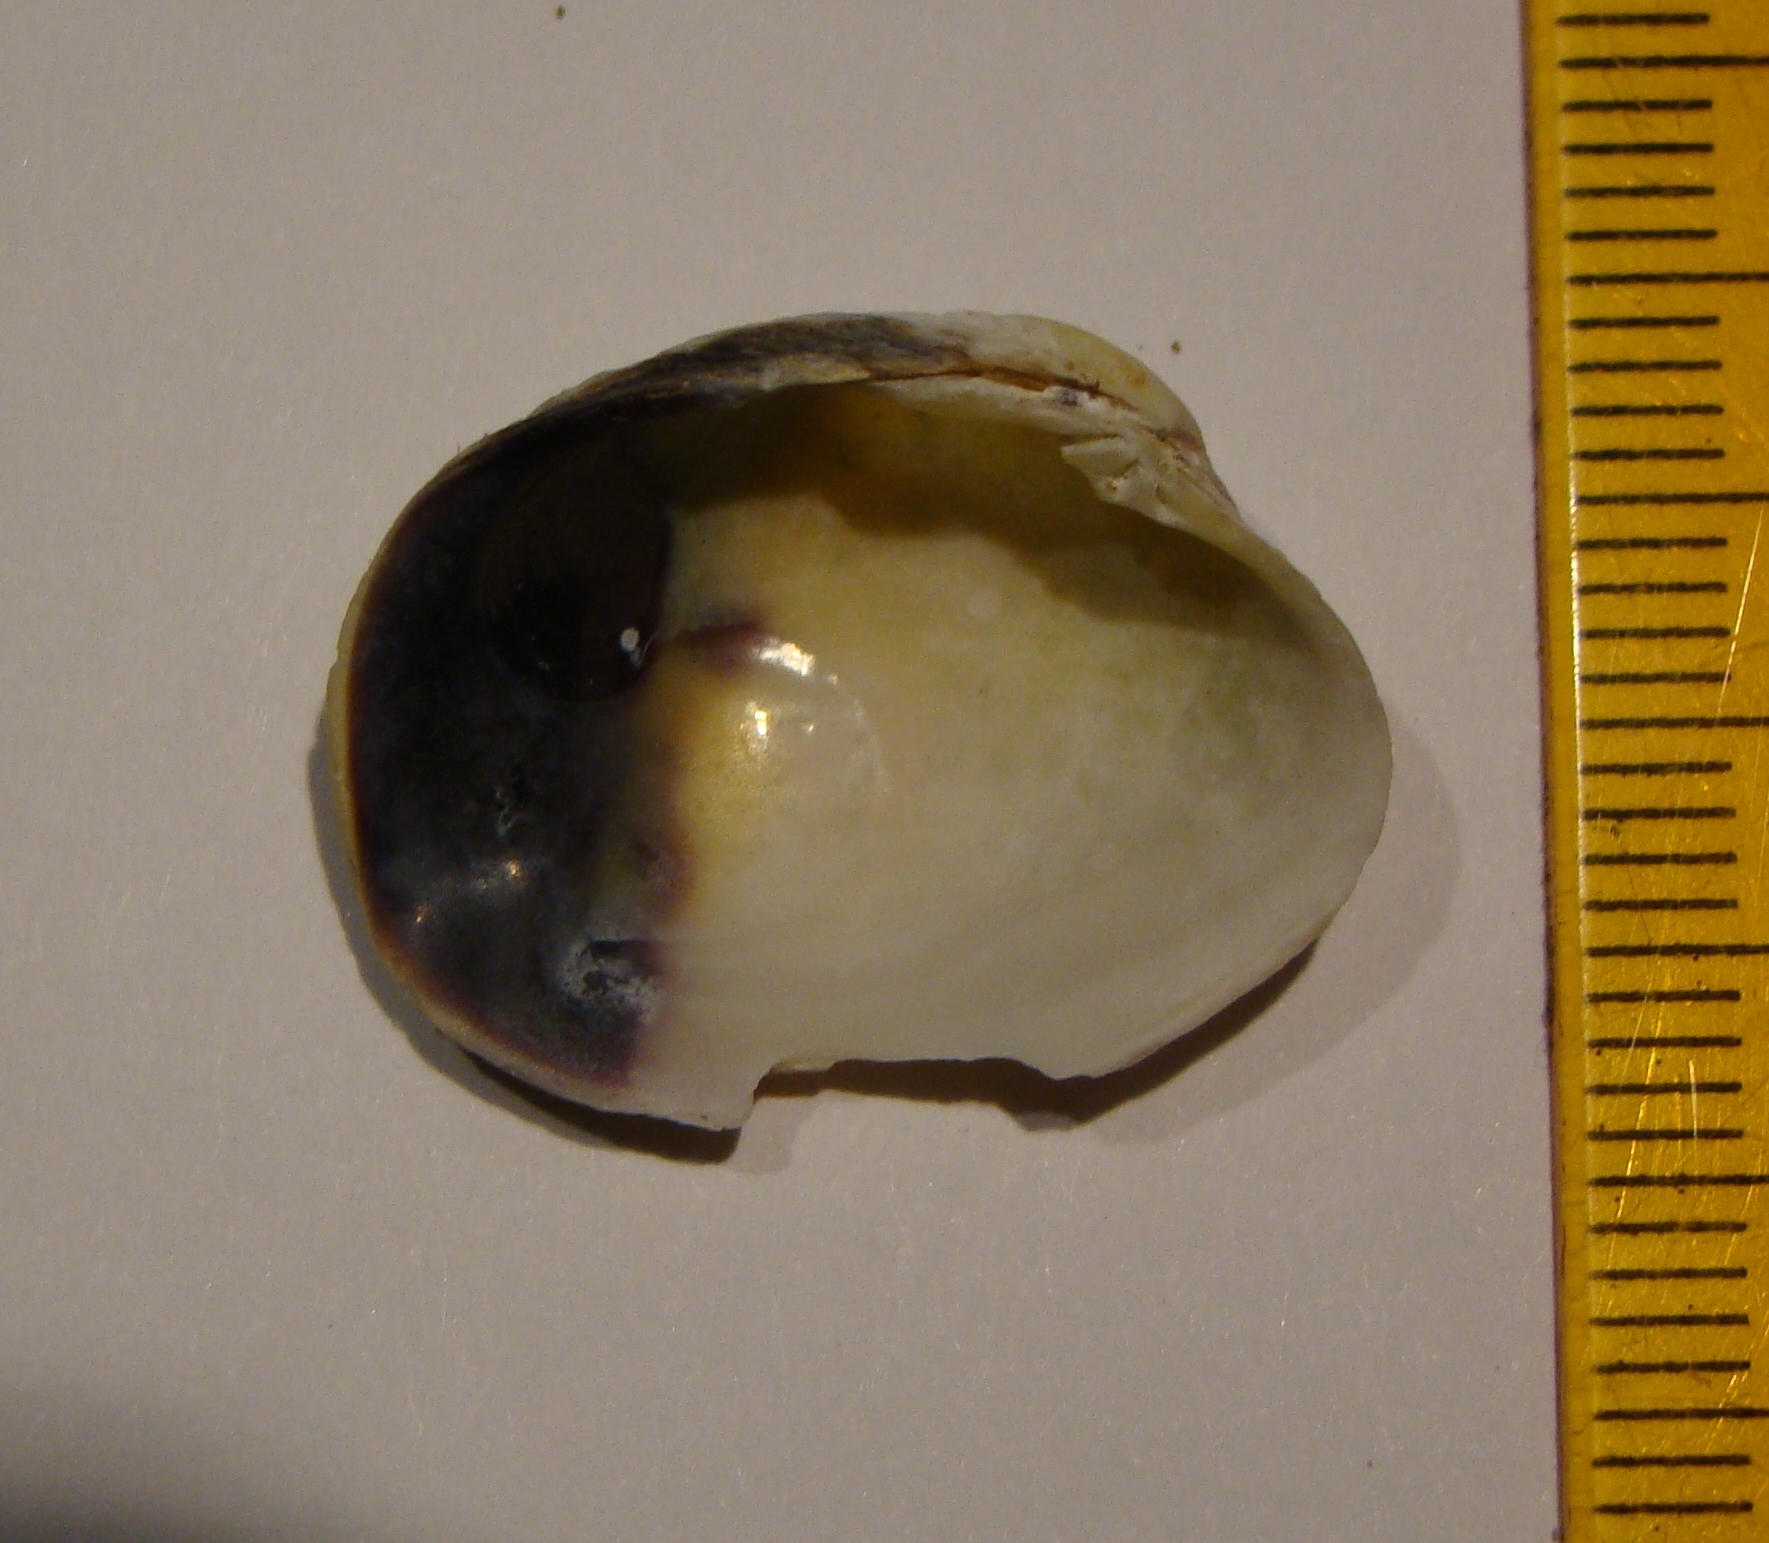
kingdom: Animalia
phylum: Mollusca
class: Bivalvia
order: Venerida
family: Veneridae
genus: Irus
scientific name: Irus reflexus
